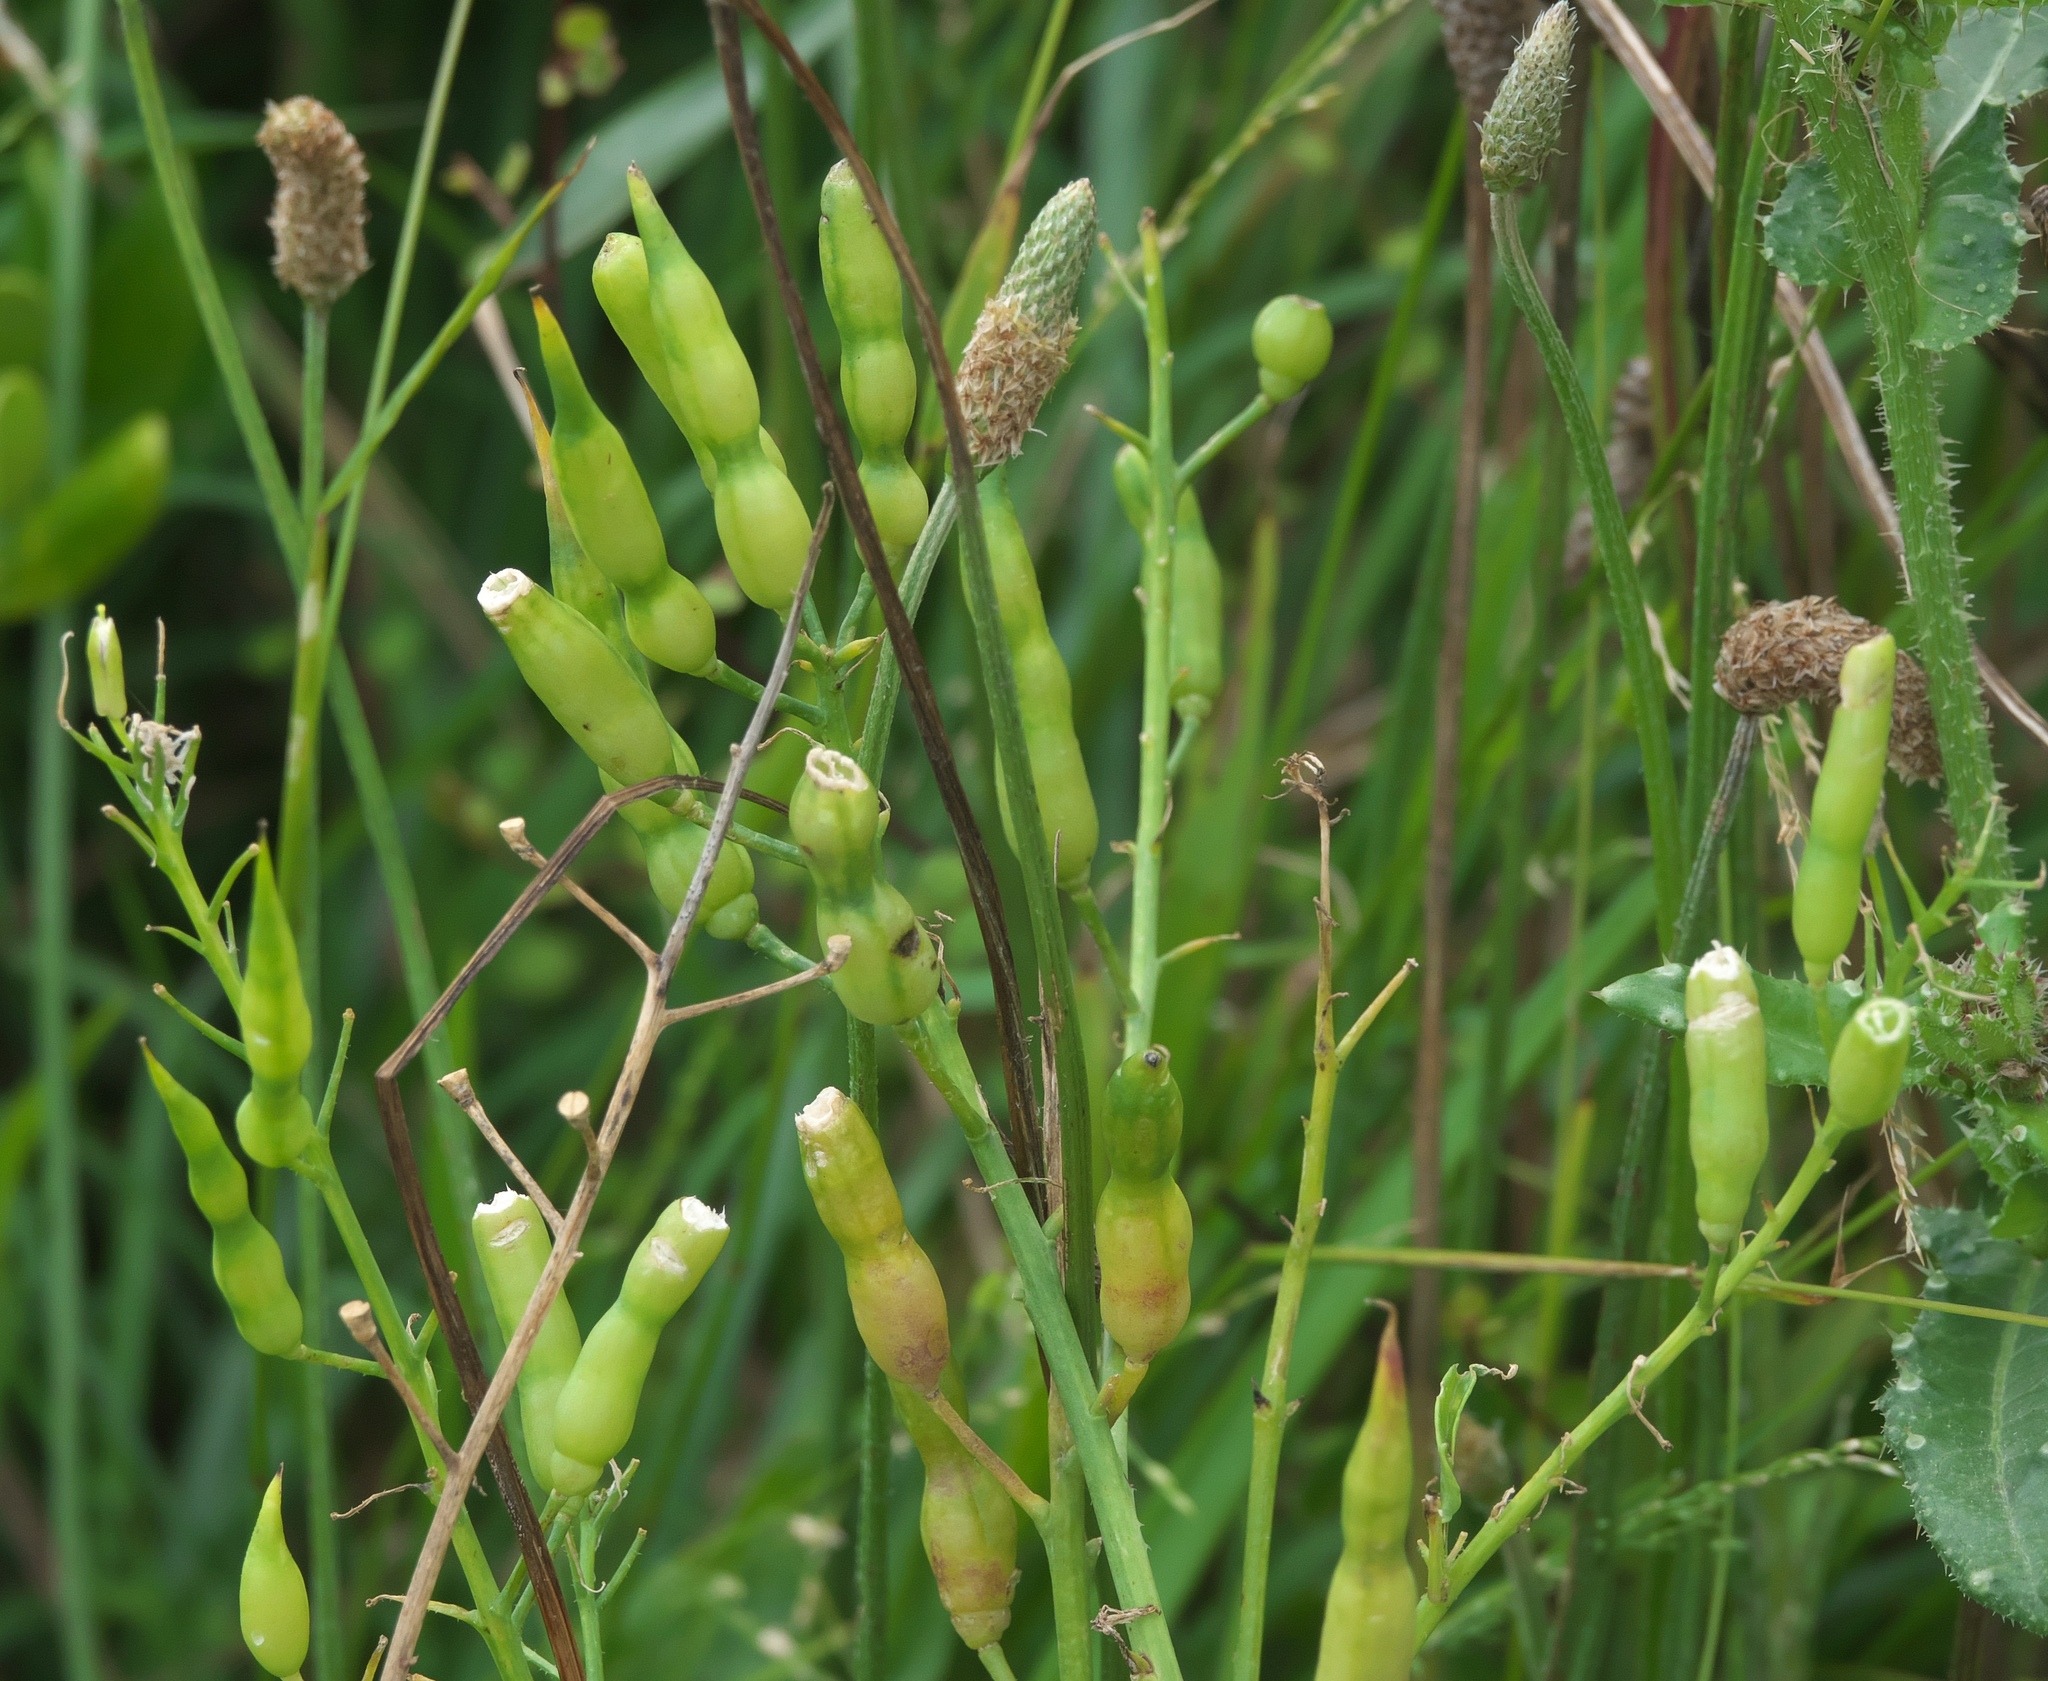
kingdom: Plantae
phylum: Tracheophyta
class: Magnoliopsida
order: Brassicales
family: Brassicaceae
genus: Raphanus
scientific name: Raphanus raphanistrum
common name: Wild radish
